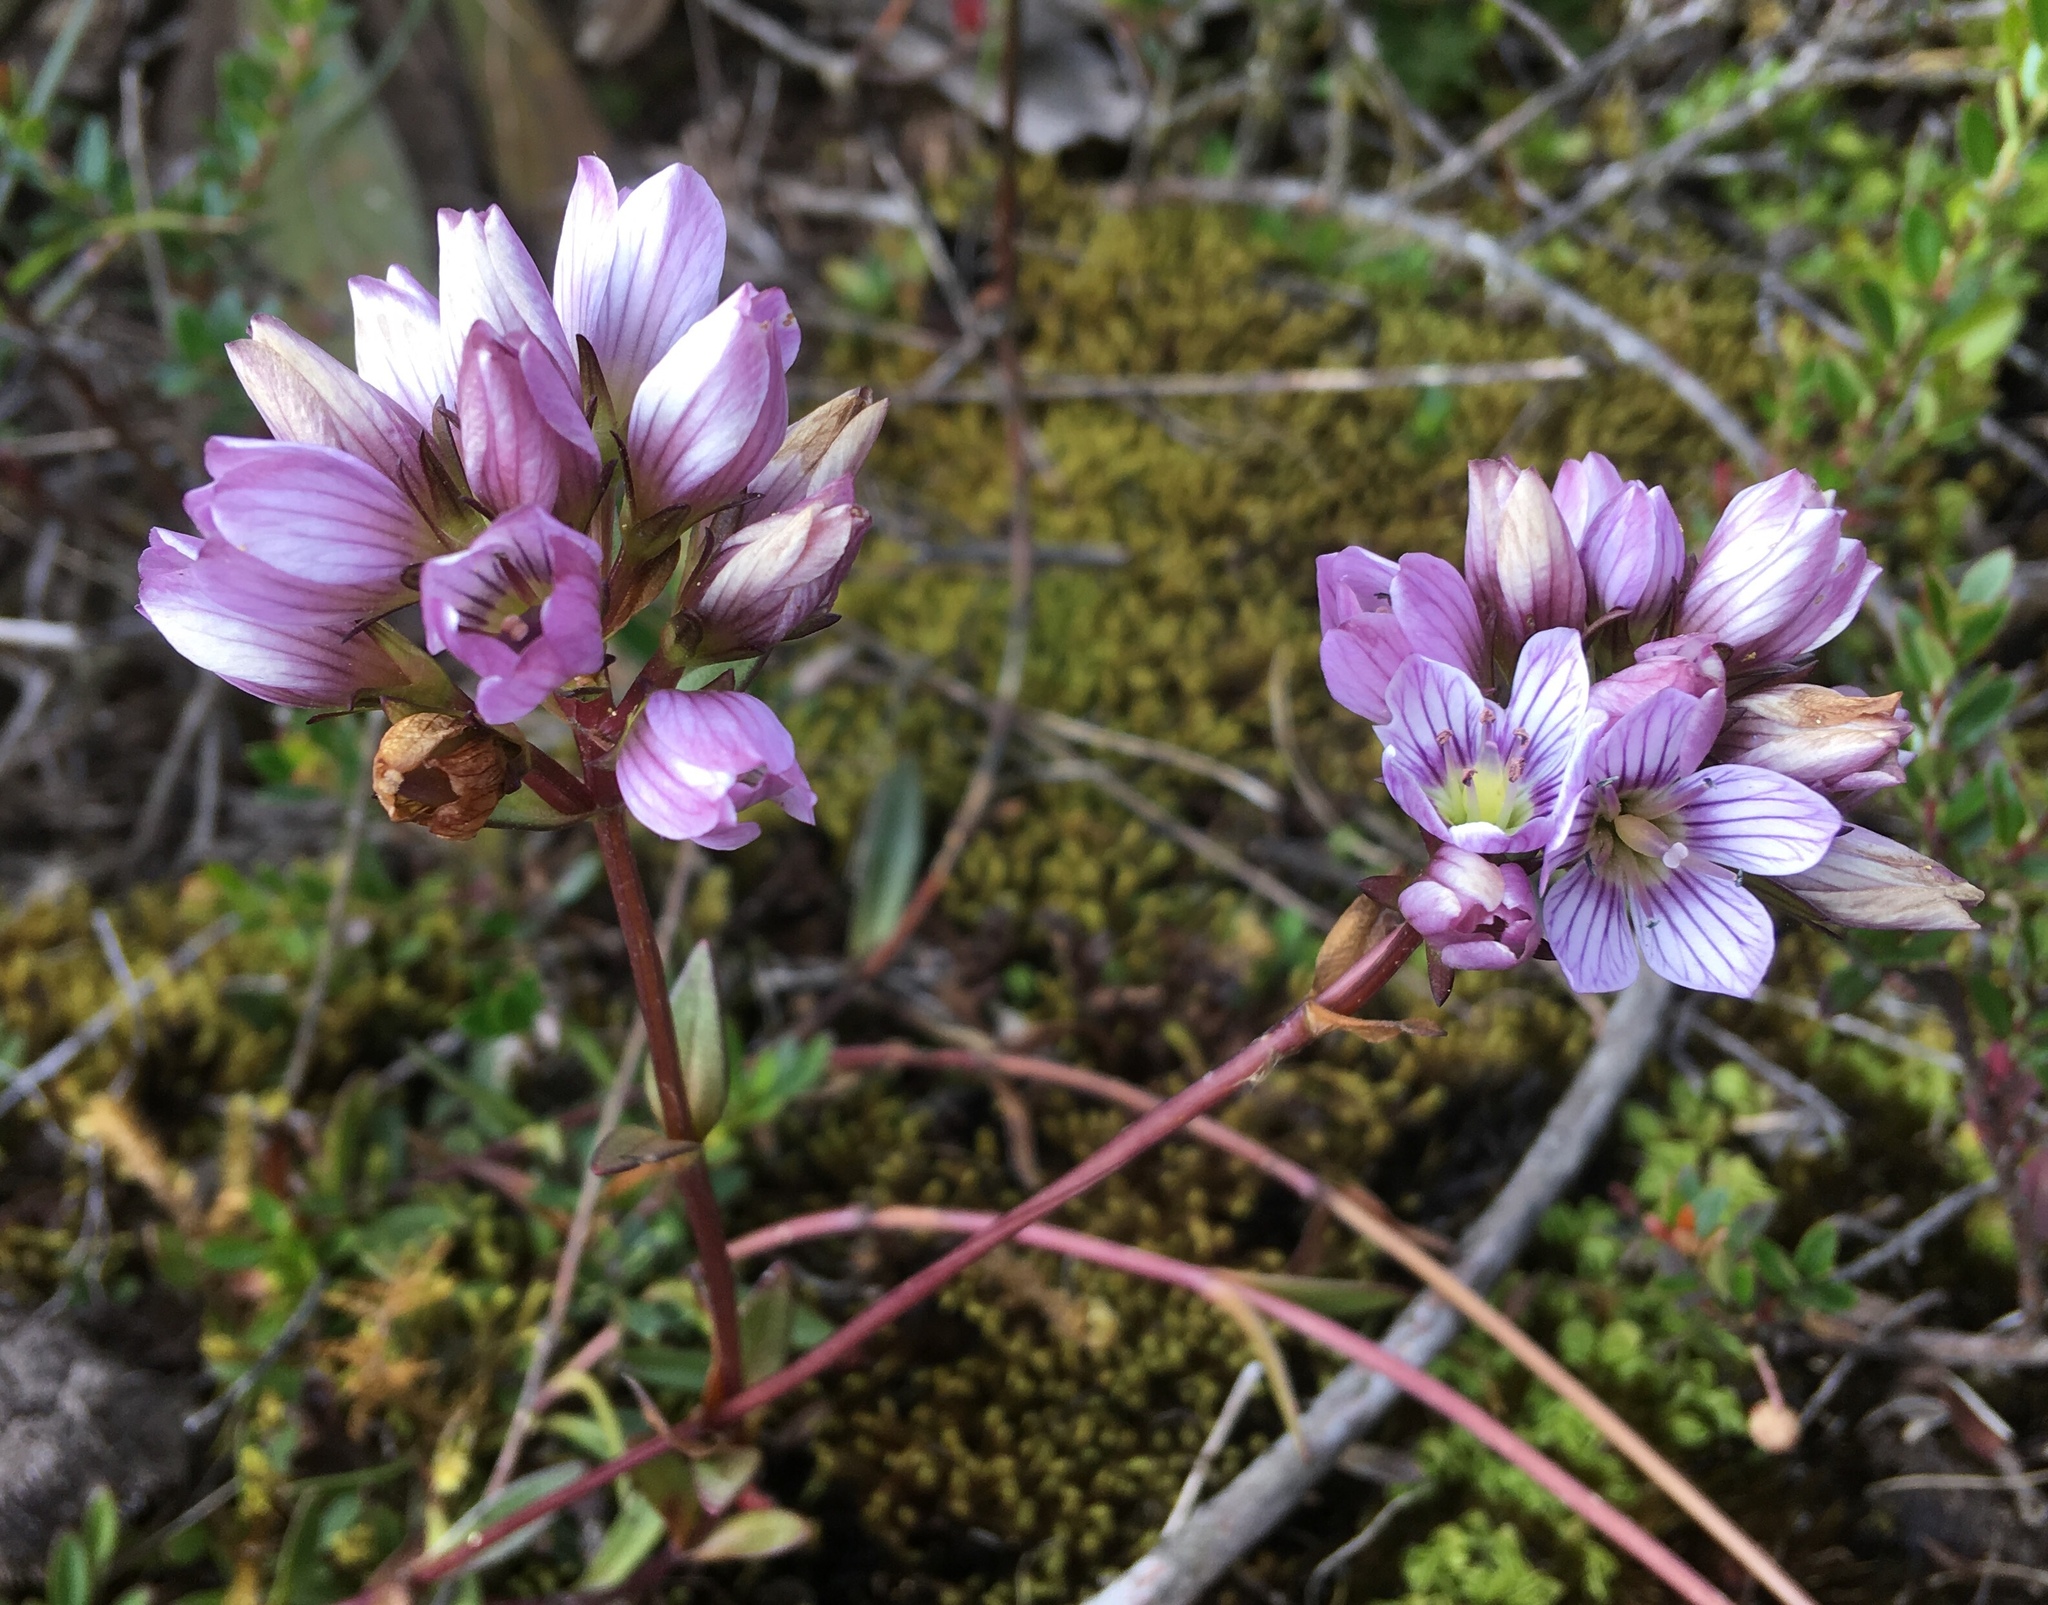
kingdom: Plantae
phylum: Tracheophyta
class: Magnoliopsida
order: Gentianales
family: Gentianaceae
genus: Gentianella
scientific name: Gentianella corymbosa
